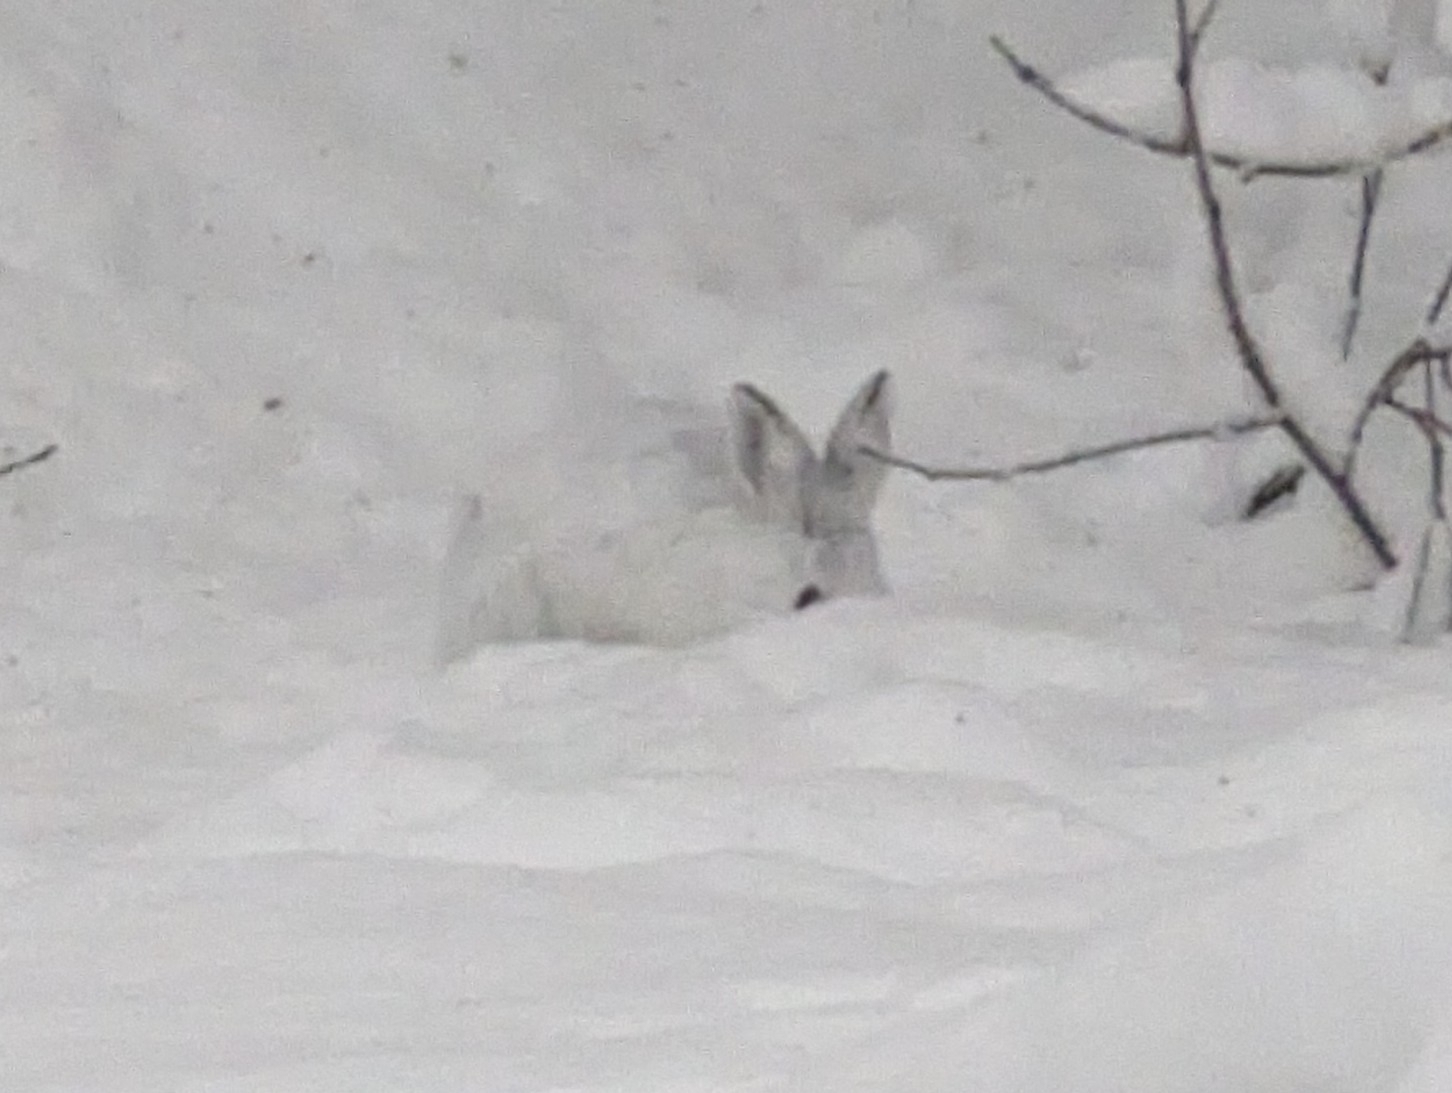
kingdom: Animalia
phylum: Chordata
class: Mammalia
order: Lagomorpha
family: Leporidae
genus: Lepus
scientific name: Lepus americanus
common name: Snowshoe hare
